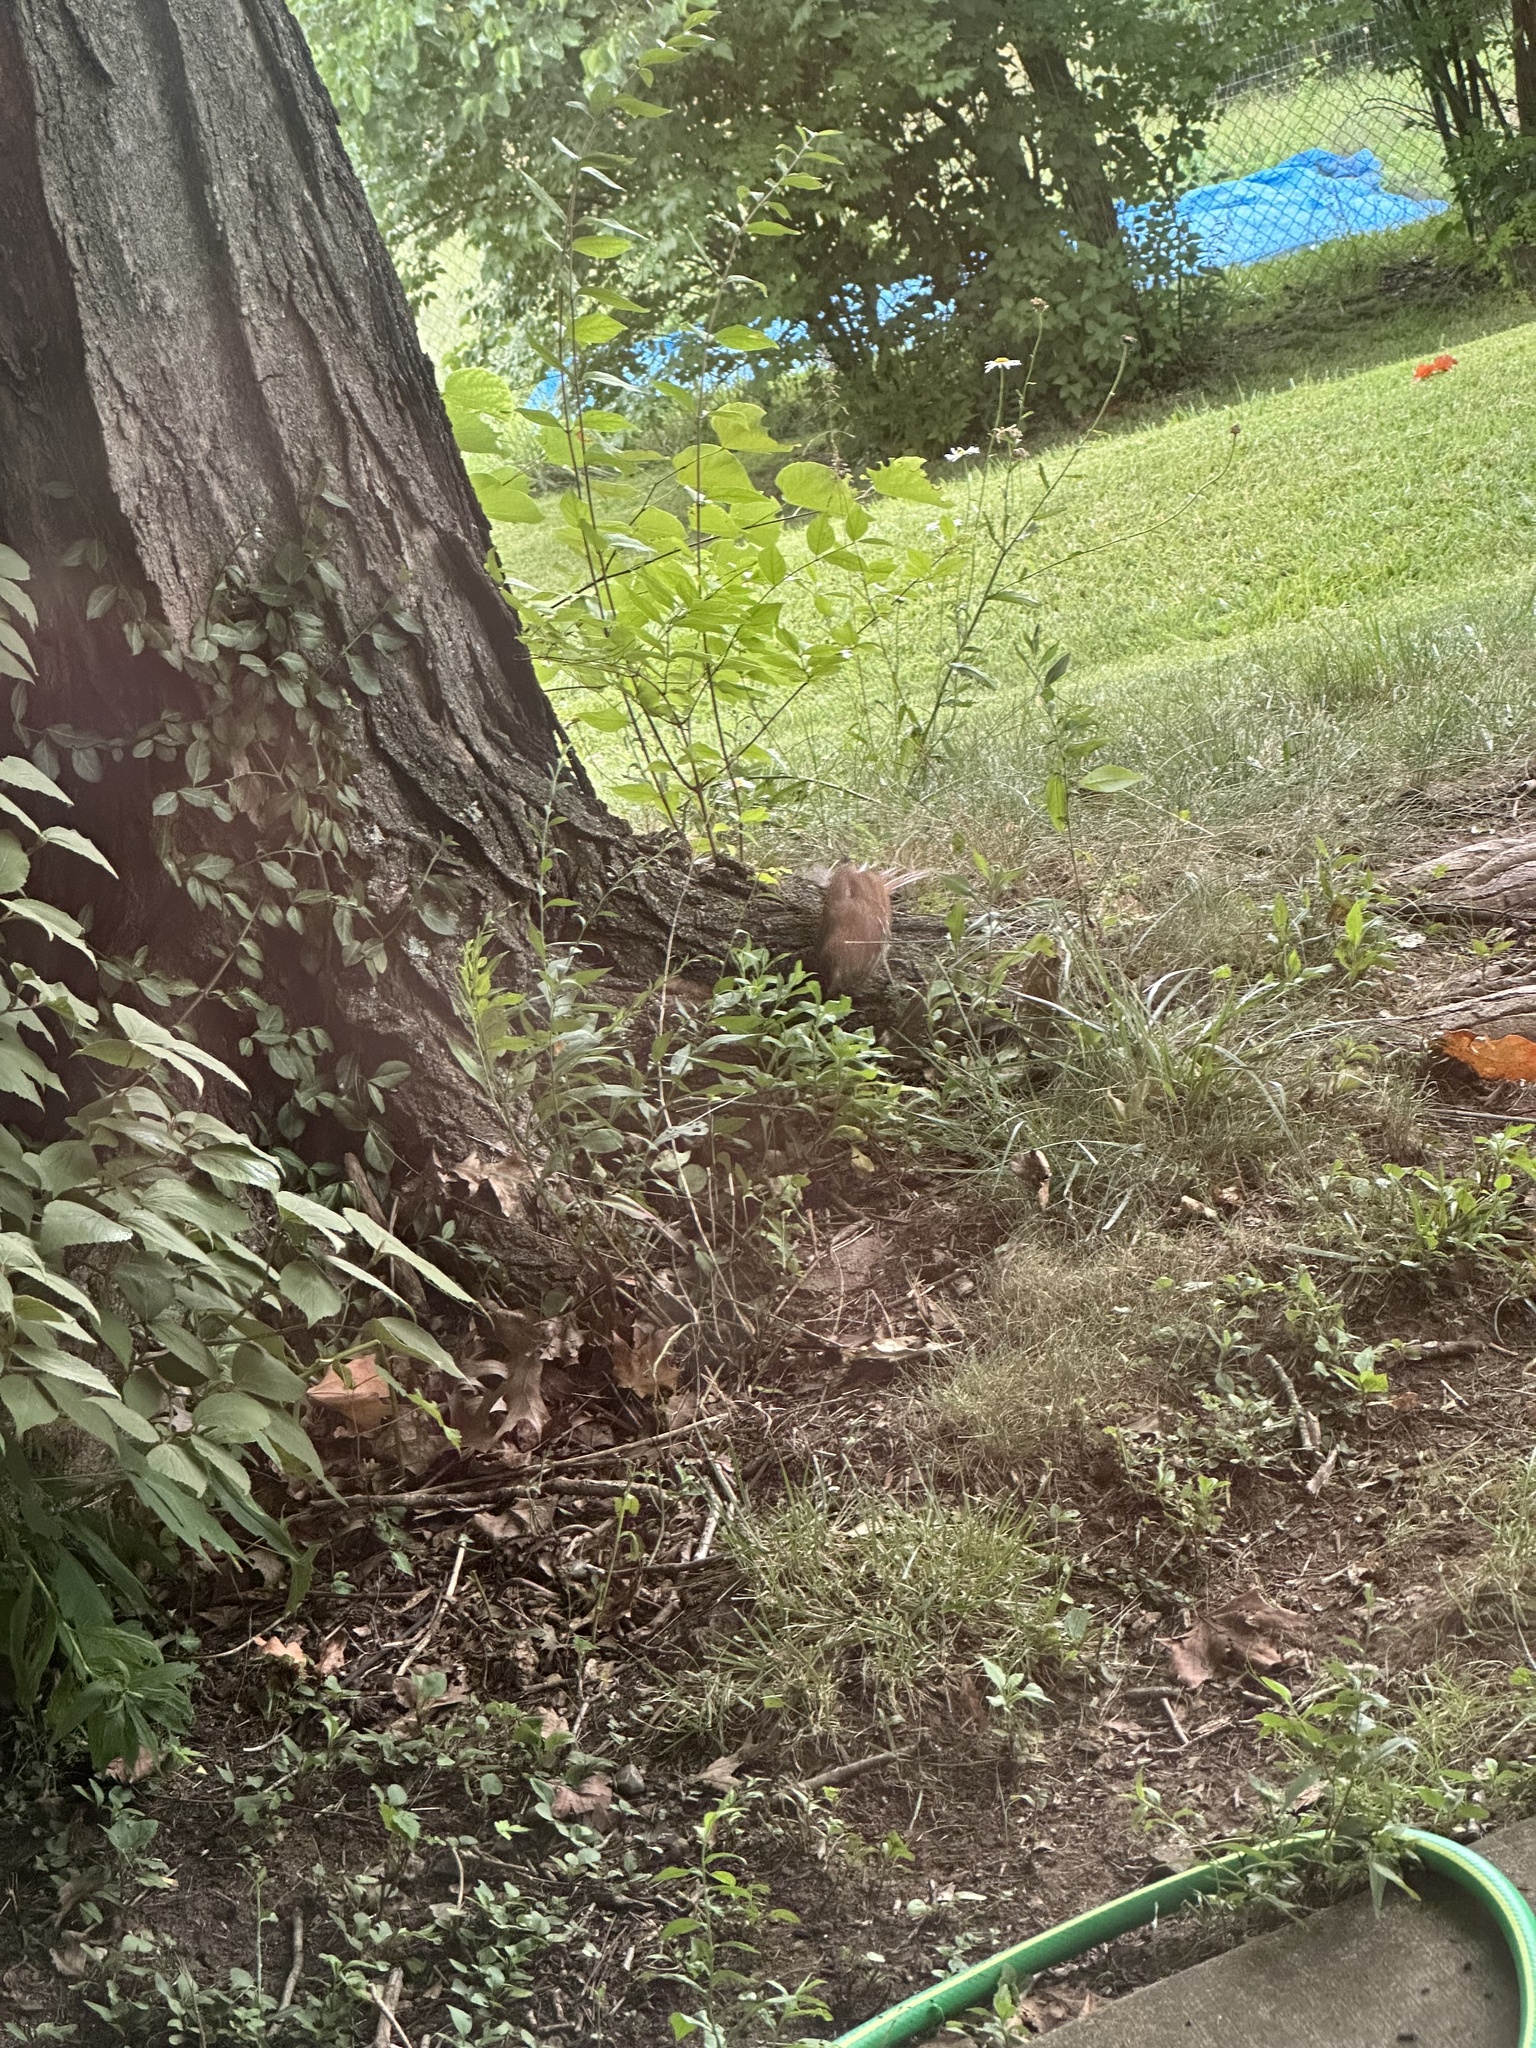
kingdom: Animalia
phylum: Chordata
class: Aves
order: Passeriformes
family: Mimidae
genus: Toxostoma
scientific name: Toxostoma rufum
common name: Brown thrasher
